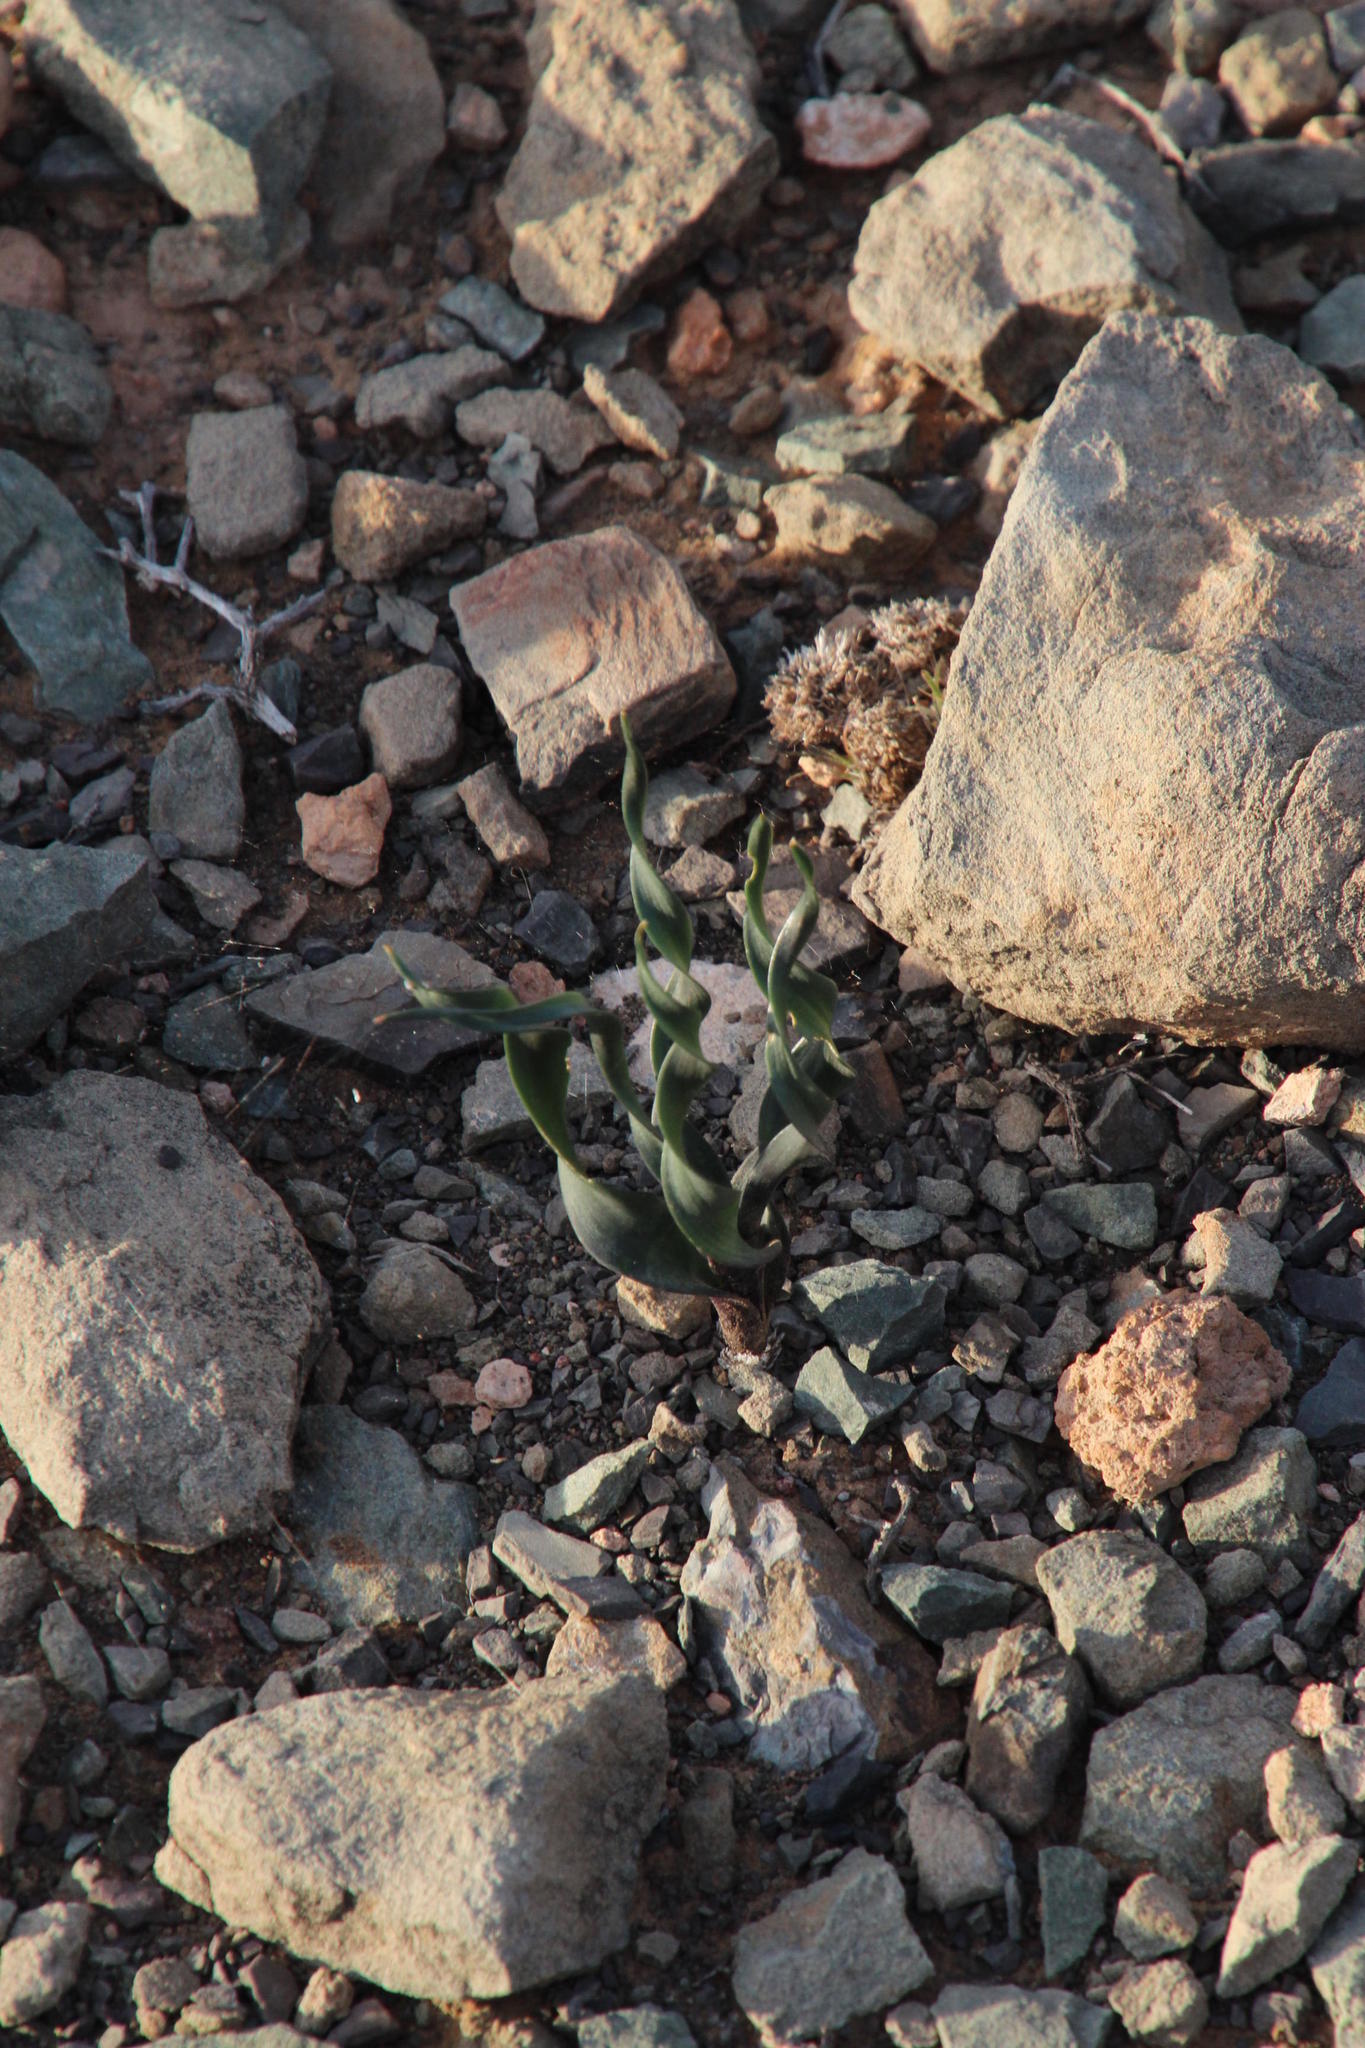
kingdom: Plantae
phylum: Tracheophyta
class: Liliopsida
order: Asparagales
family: Asparagaceae
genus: Fusifilum
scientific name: Fusifilum physodes
